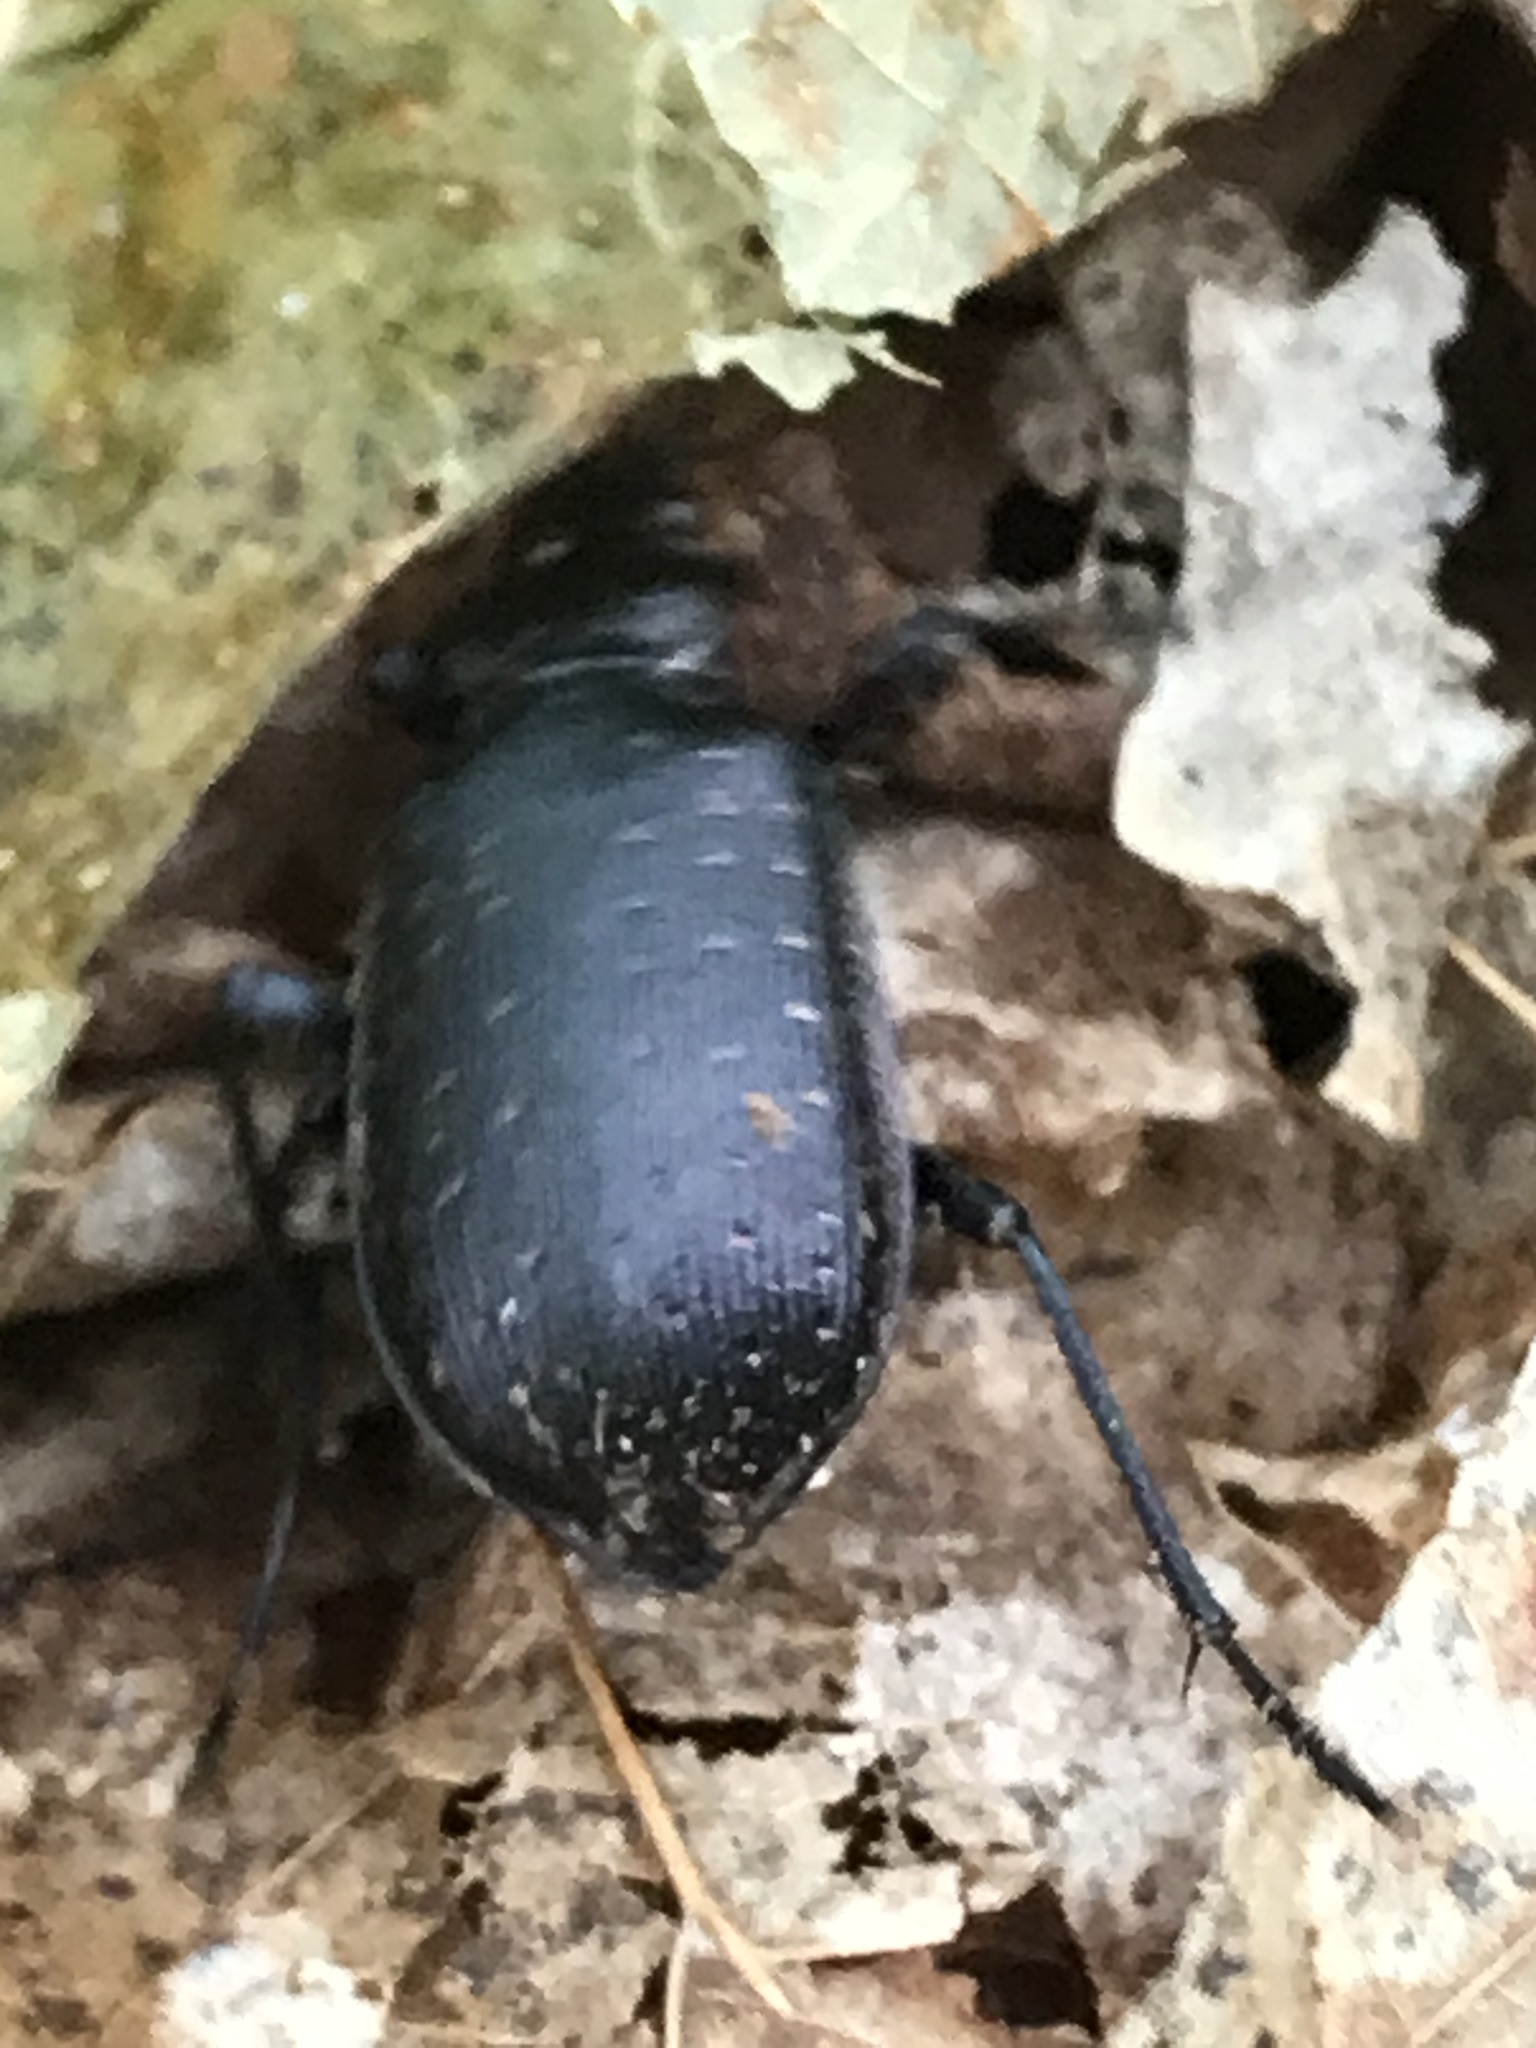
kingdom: Animalia
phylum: Arthropoda
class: Insecta
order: Coleoptera
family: Carabidae
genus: Calosoma
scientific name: Calosoma sayi
